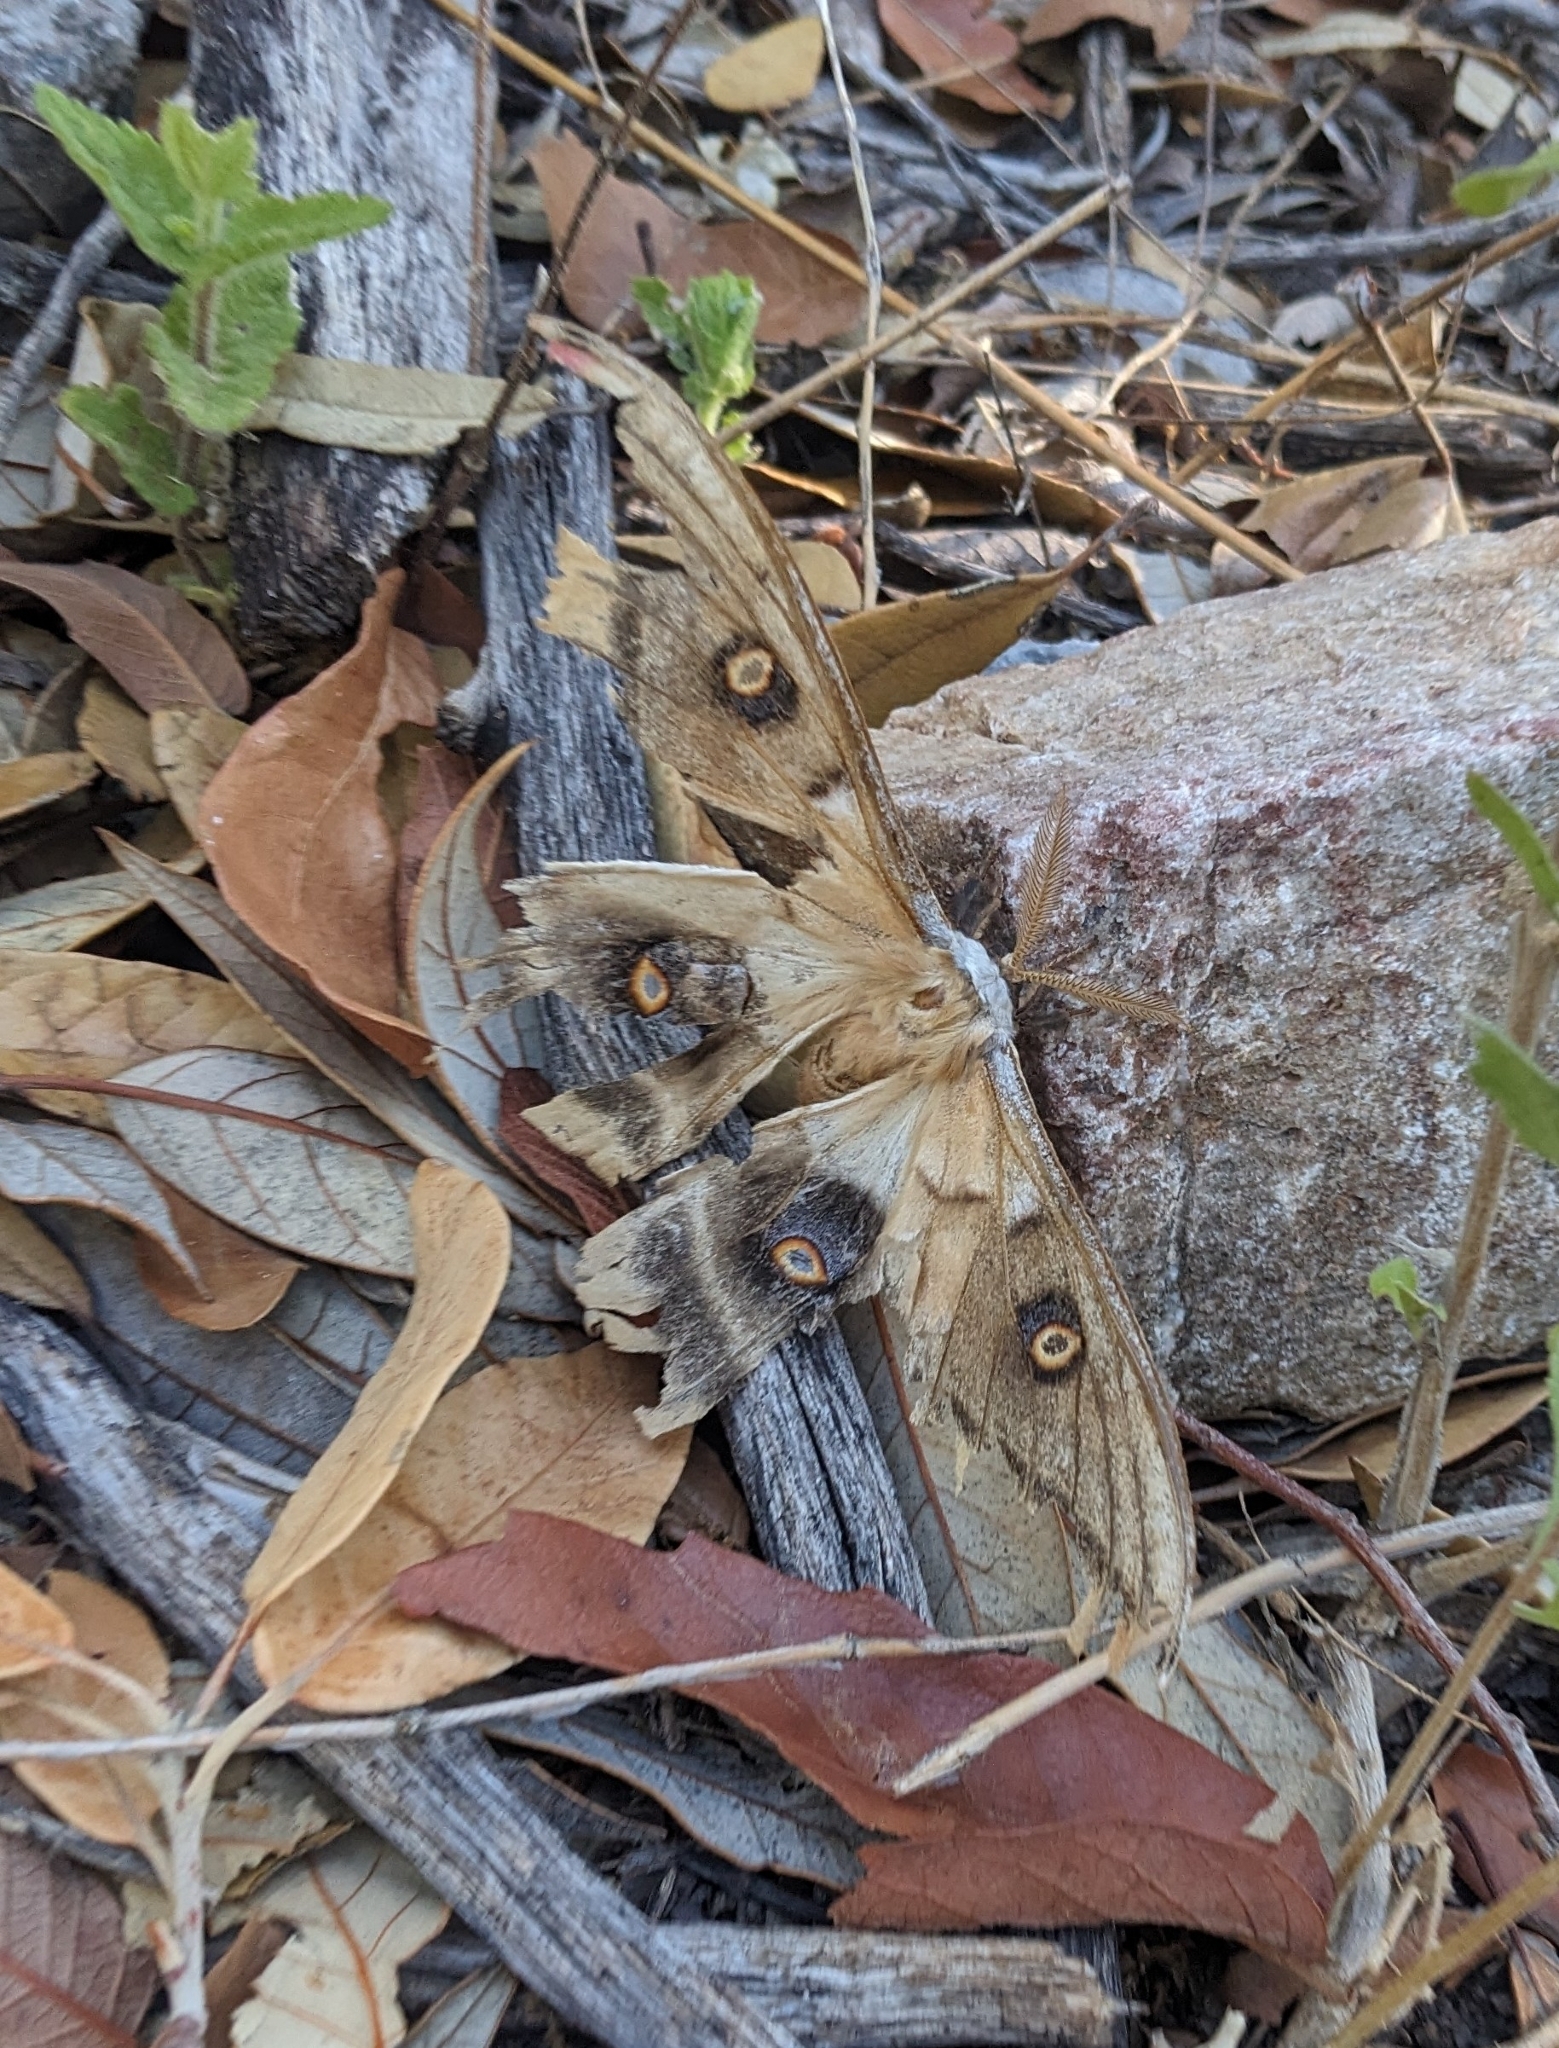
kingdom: Animalia
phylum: Arthropoda
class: Insecta
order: Lepidoptera
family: Saturniidae
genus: Antheraea
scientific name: Antheraea oculea
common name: Arizona polyphemus moth
